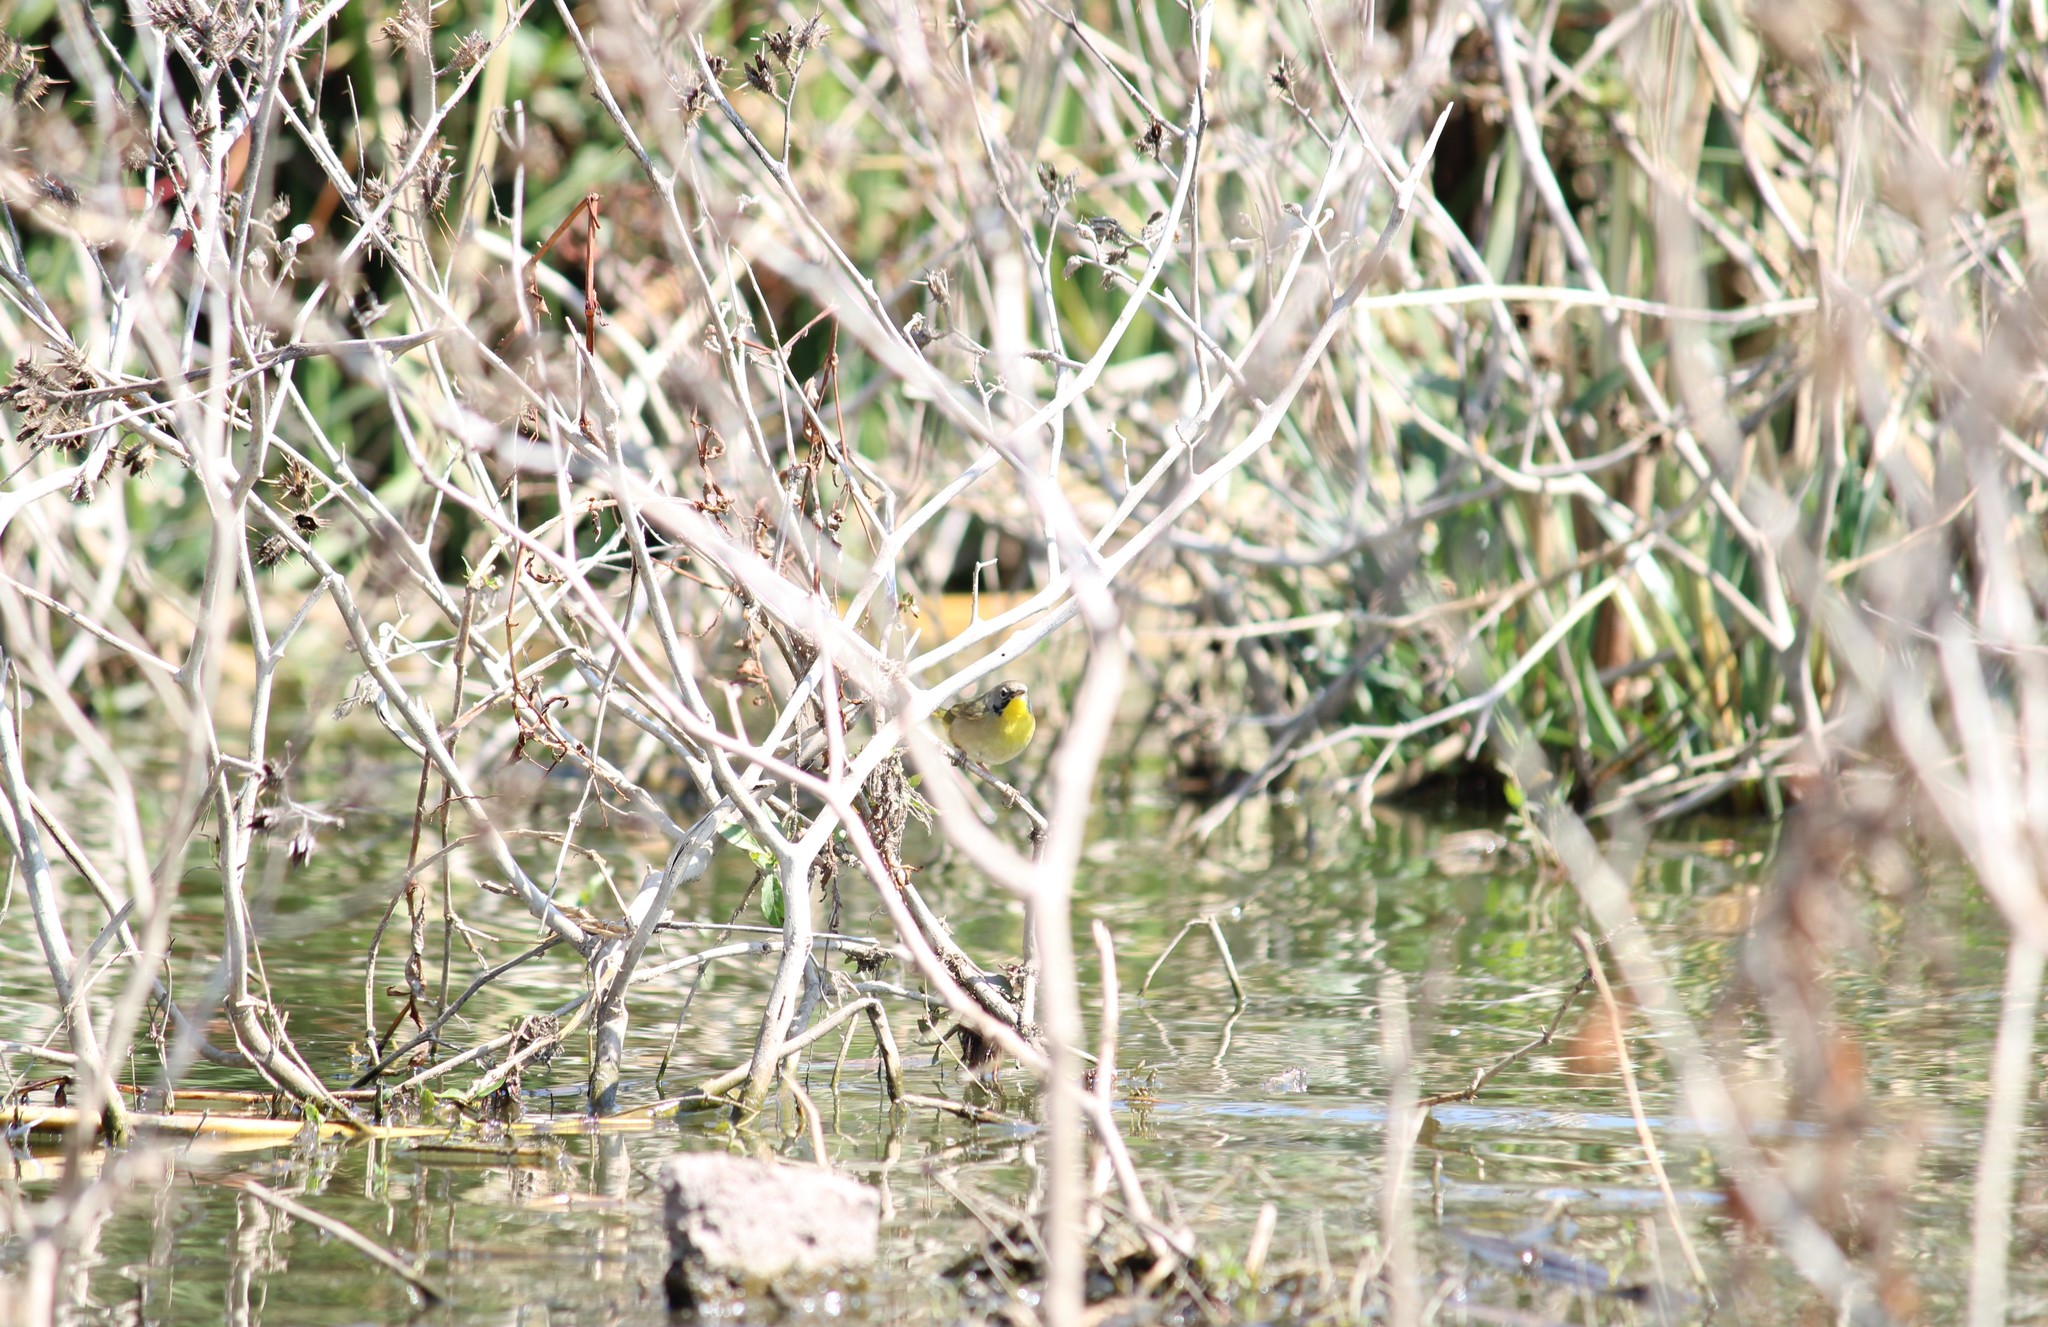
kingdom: Animalia
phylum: Chordata
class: Aves
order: Passeriformes
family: Parulidae
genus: Geothlypis
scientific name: Geothlypis trichas
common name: Common yellowthroat
